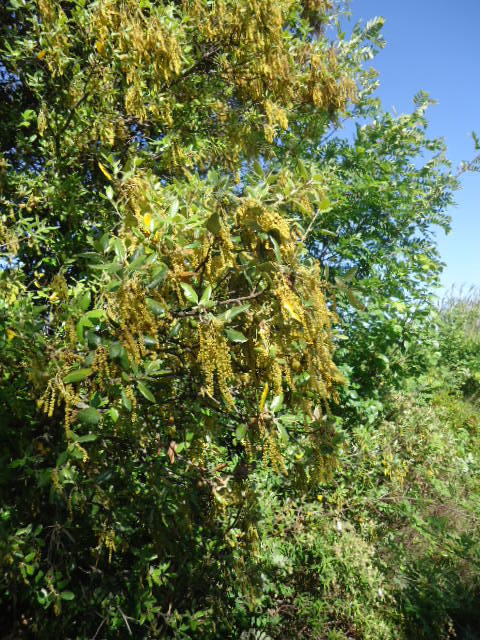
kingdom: Plantae
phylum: Tracheophyta
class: Magnoliopsida
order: Fagales
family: Fagaceae
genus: Quercus
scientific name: Quercus ilex
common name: Evergreen oak
